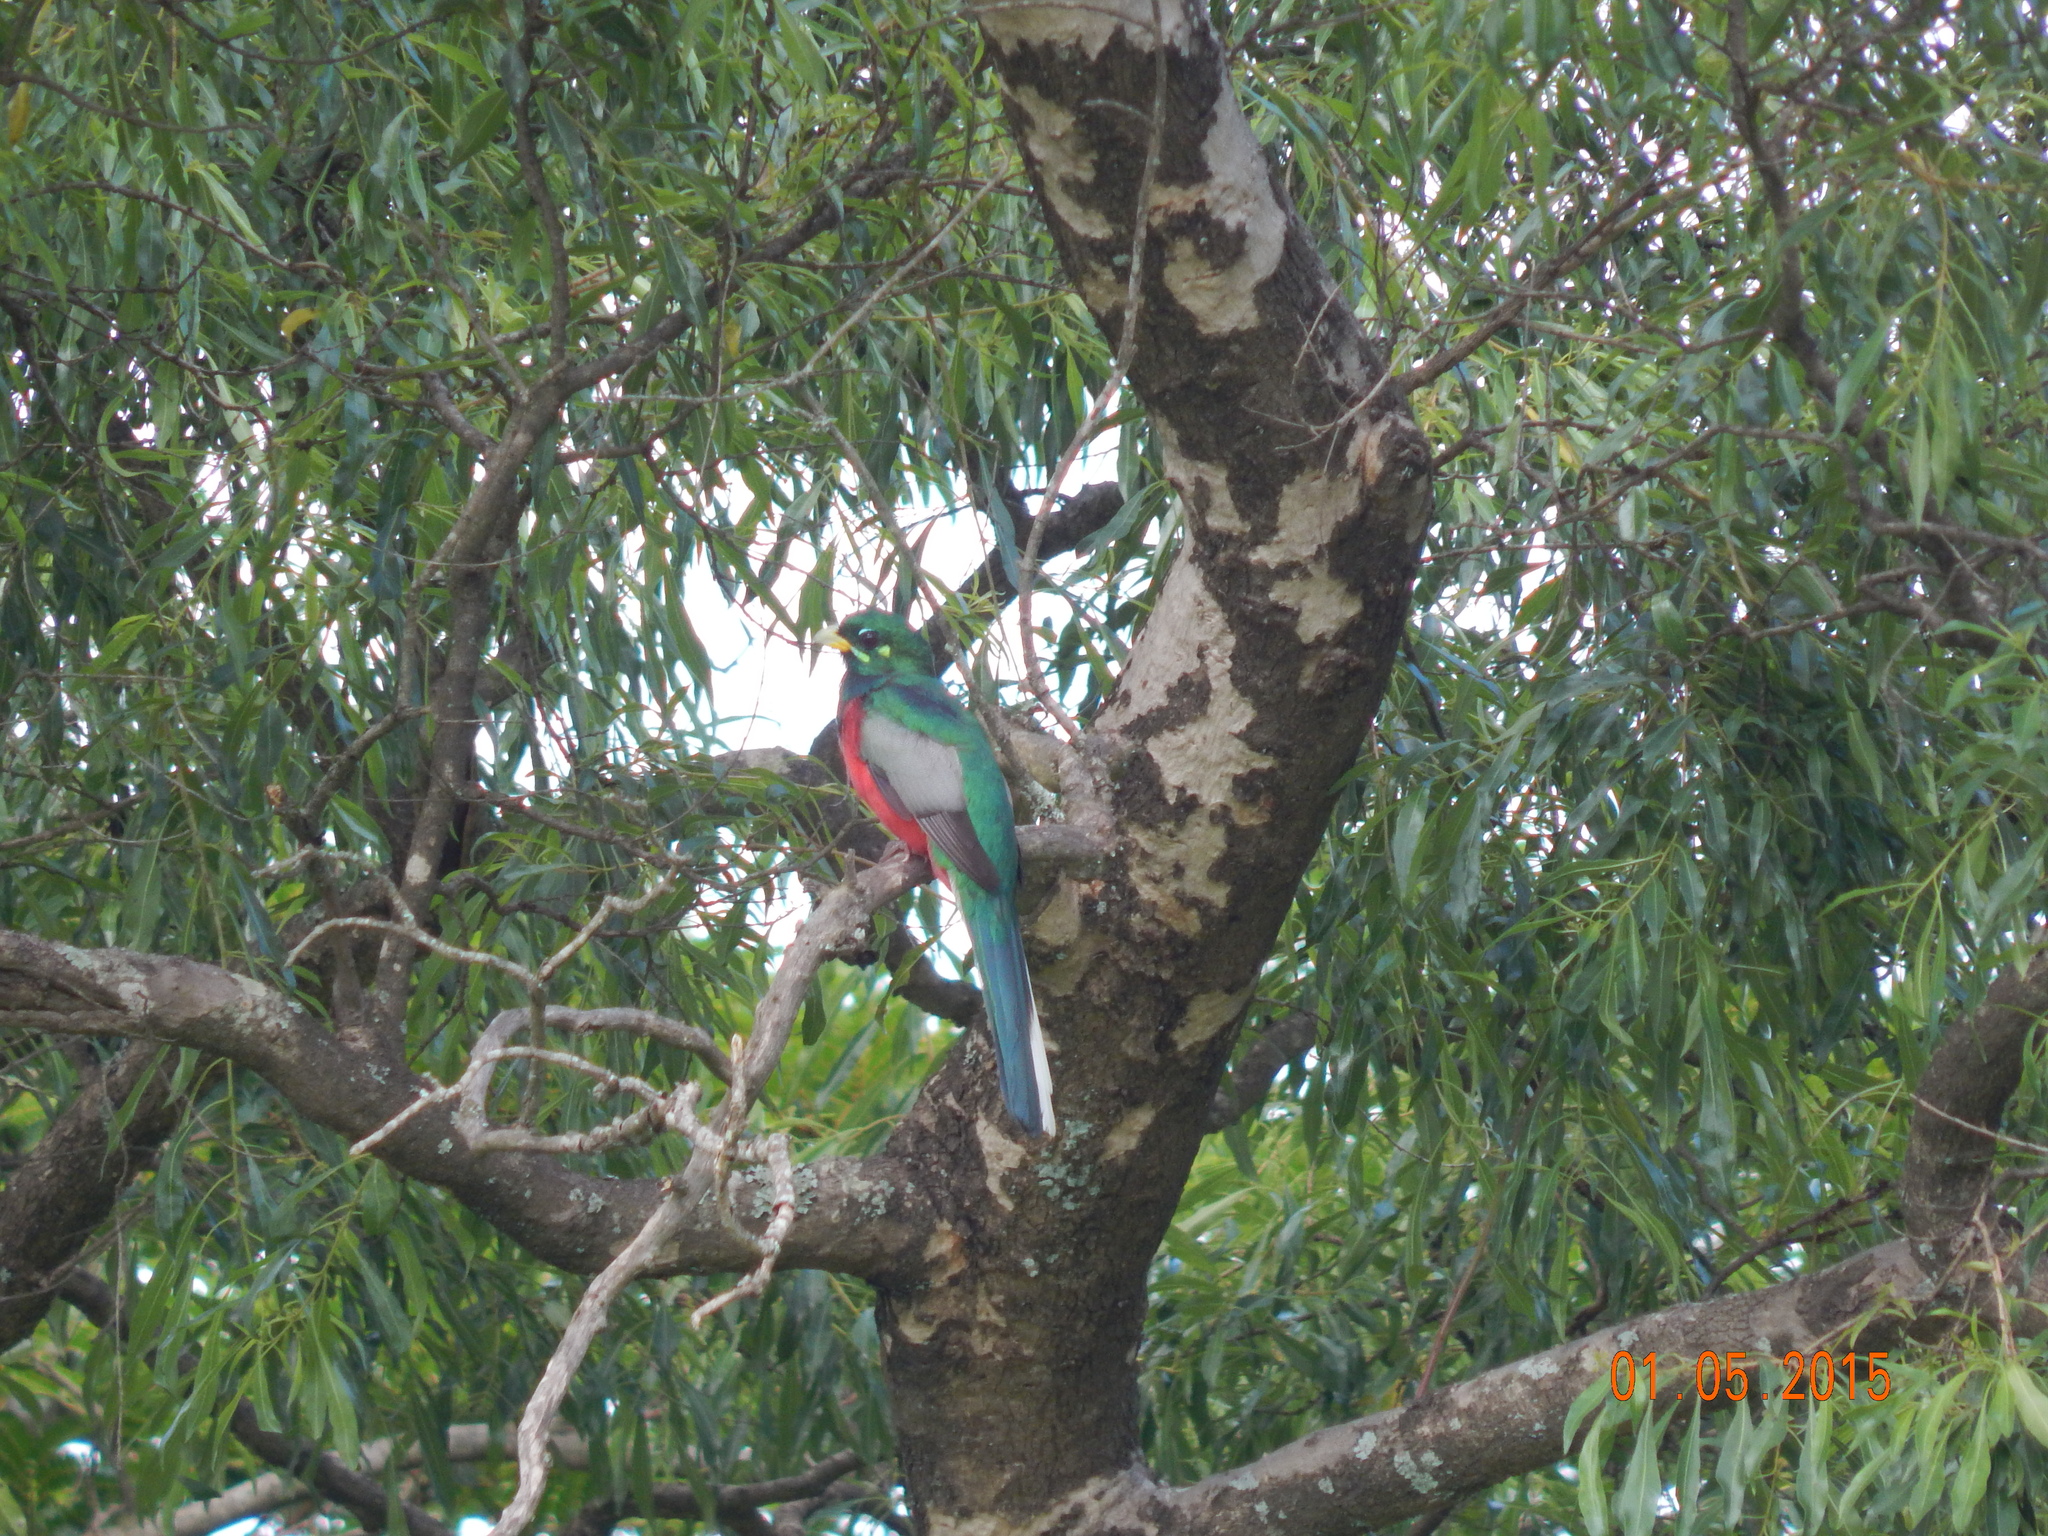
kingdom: Animalia
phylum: Chordata
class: Aves
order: Trogoniformes
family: Trogonidae
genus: Apaloderma
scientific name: Apaloderma narina
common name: Narina trogon
